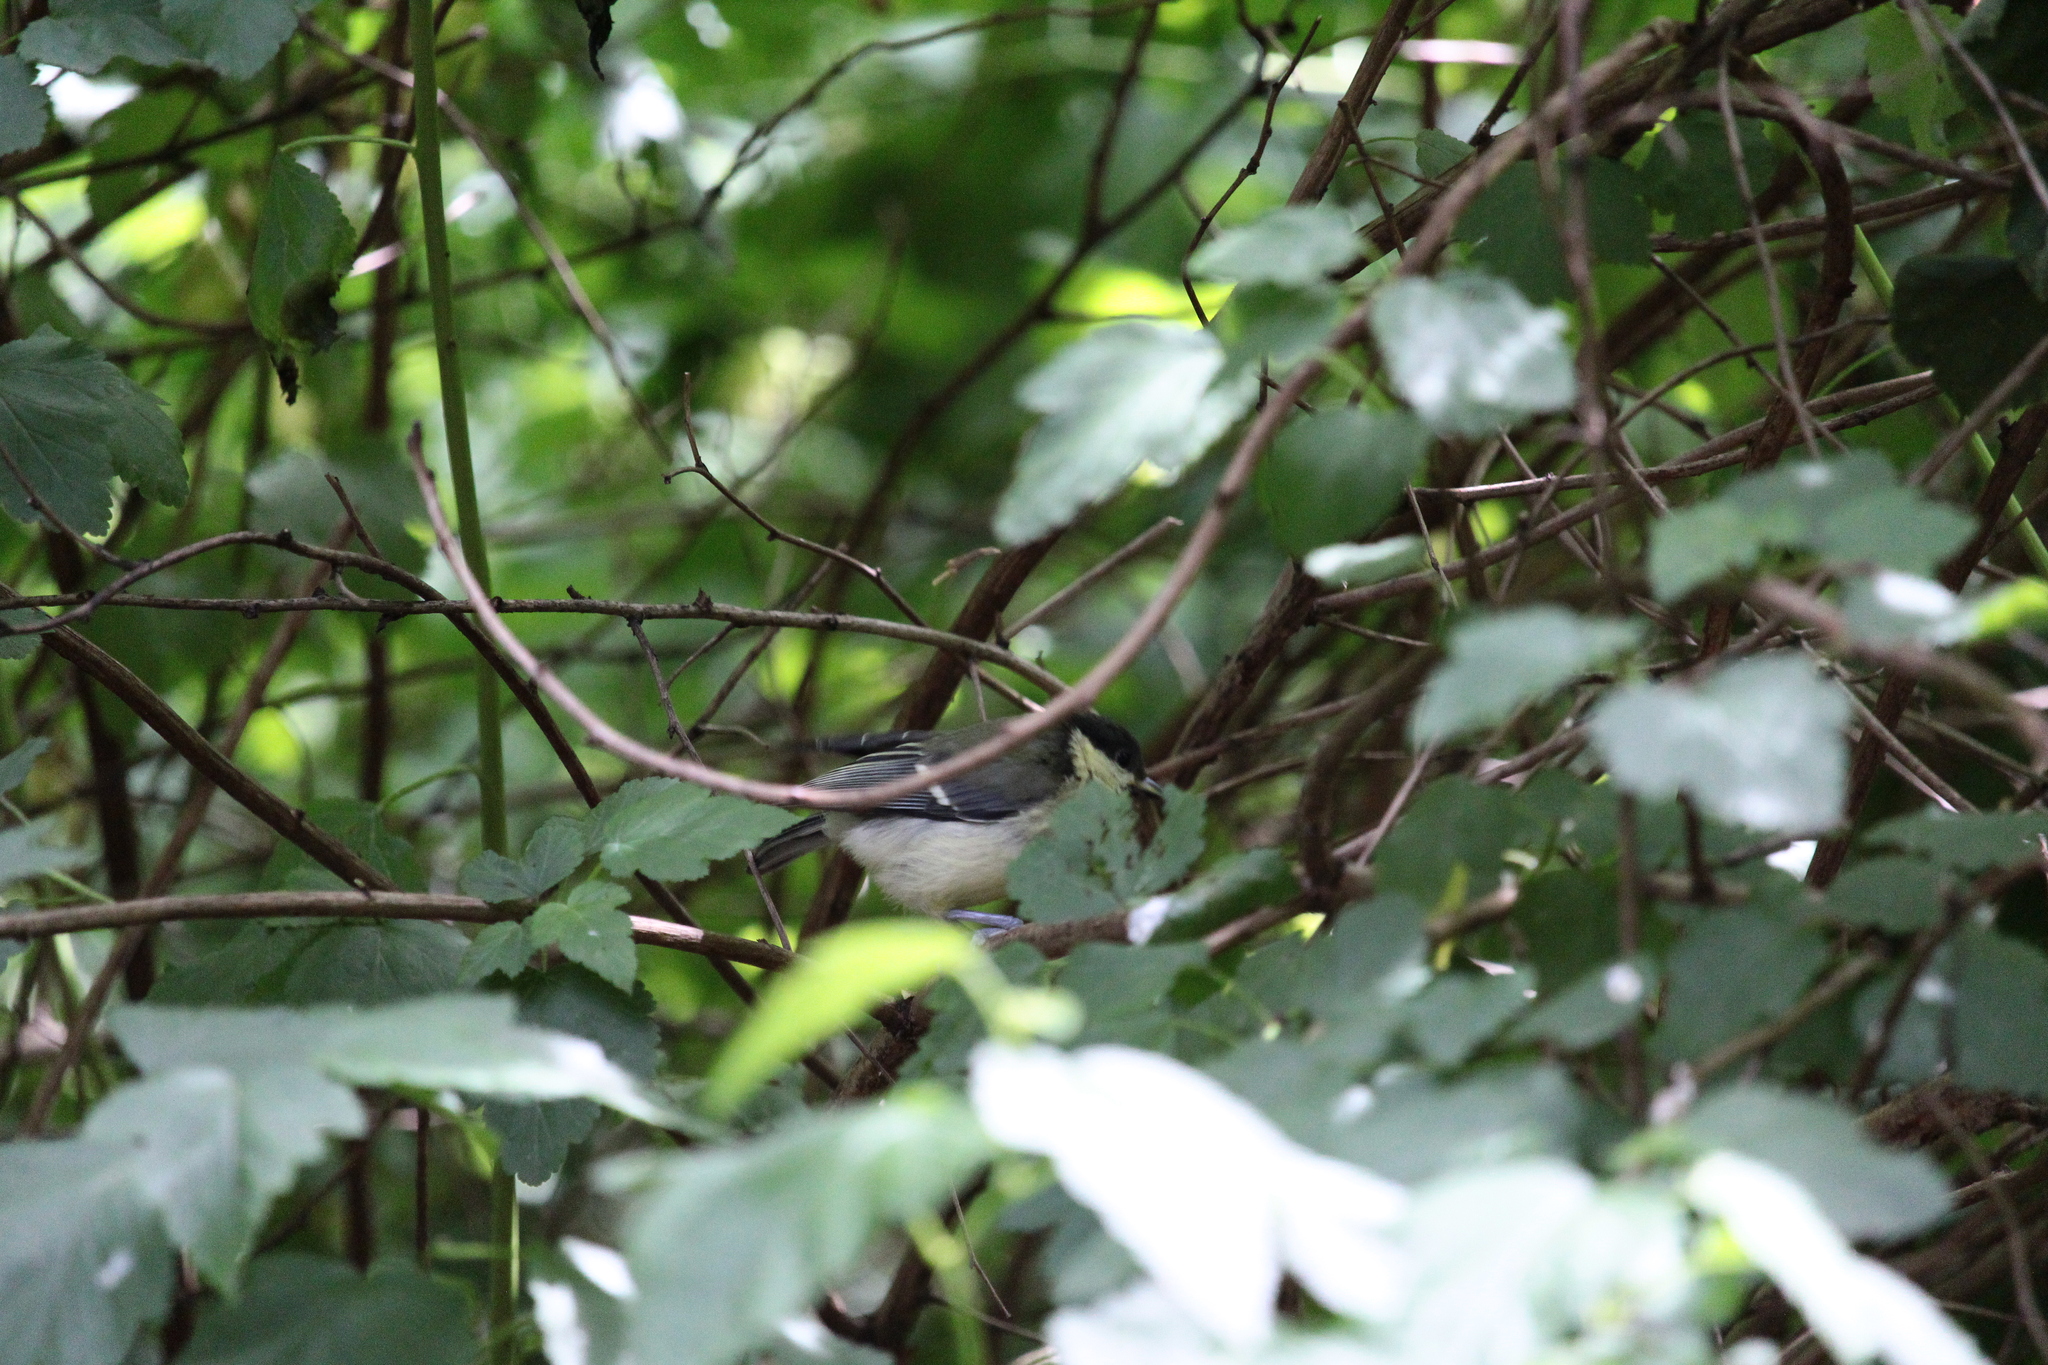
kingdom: Animalia
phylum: Chordata
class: Aves
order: Passeriformes
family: Paridae
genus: Parus
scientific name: Parus major
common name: Great tit
